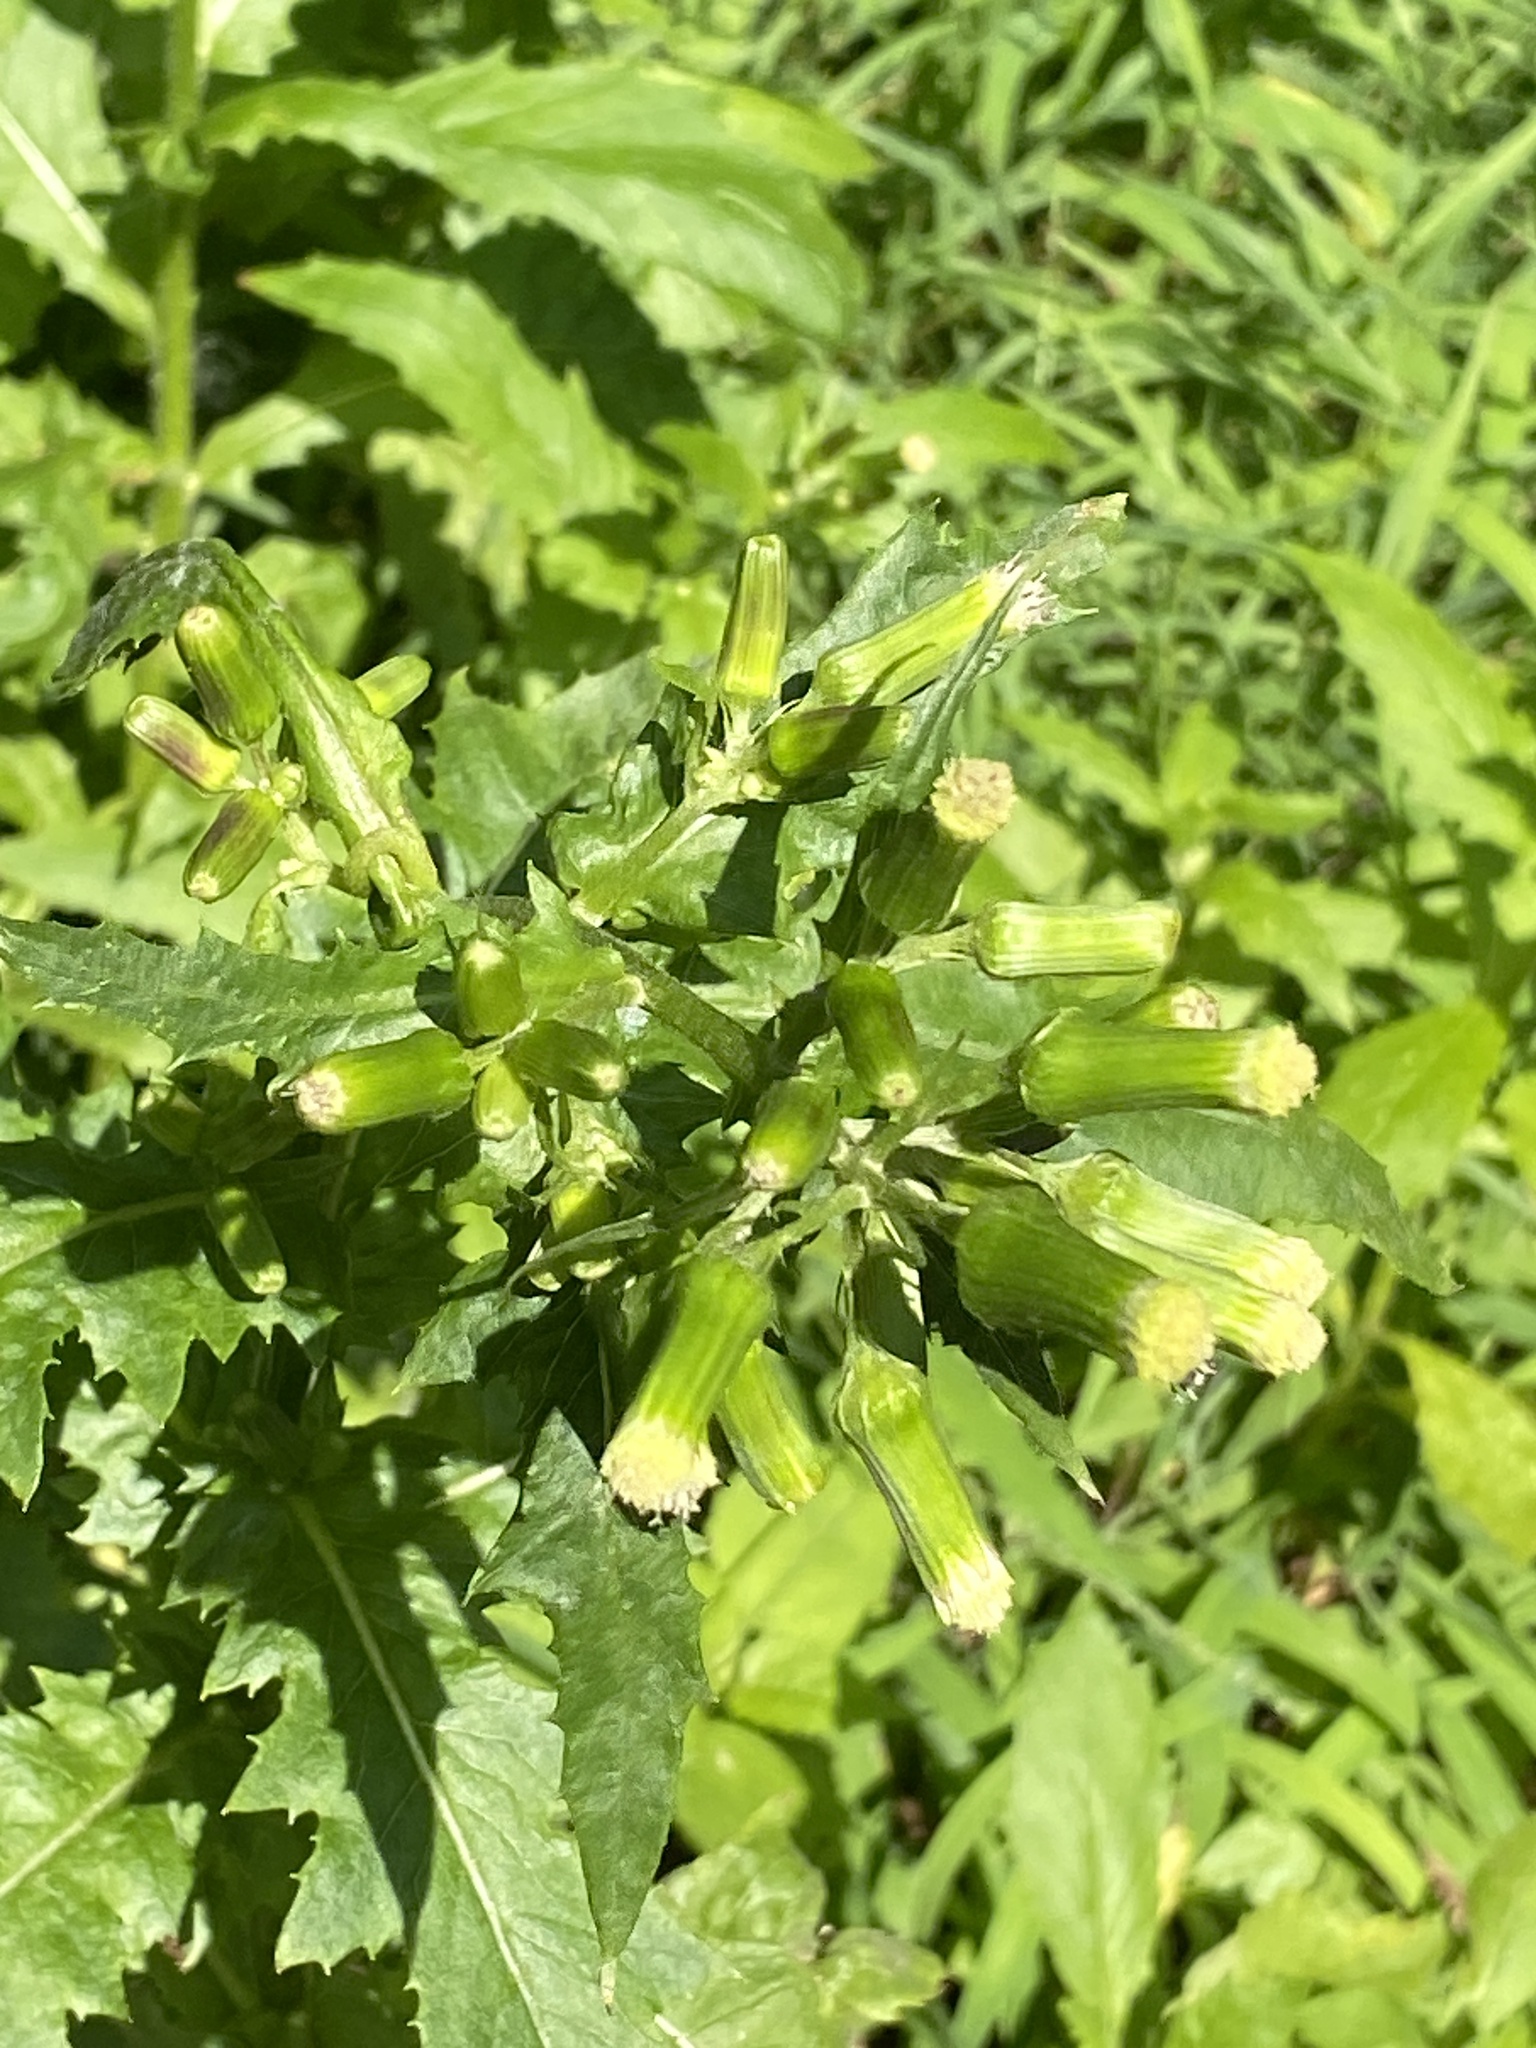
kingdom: Plantae
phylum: Tracheophyta
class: Magnoliopsida
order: Asterales
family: Asteraceae
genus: Erechtites
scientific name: Erechtites hieraciifolius
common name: American burnweed
